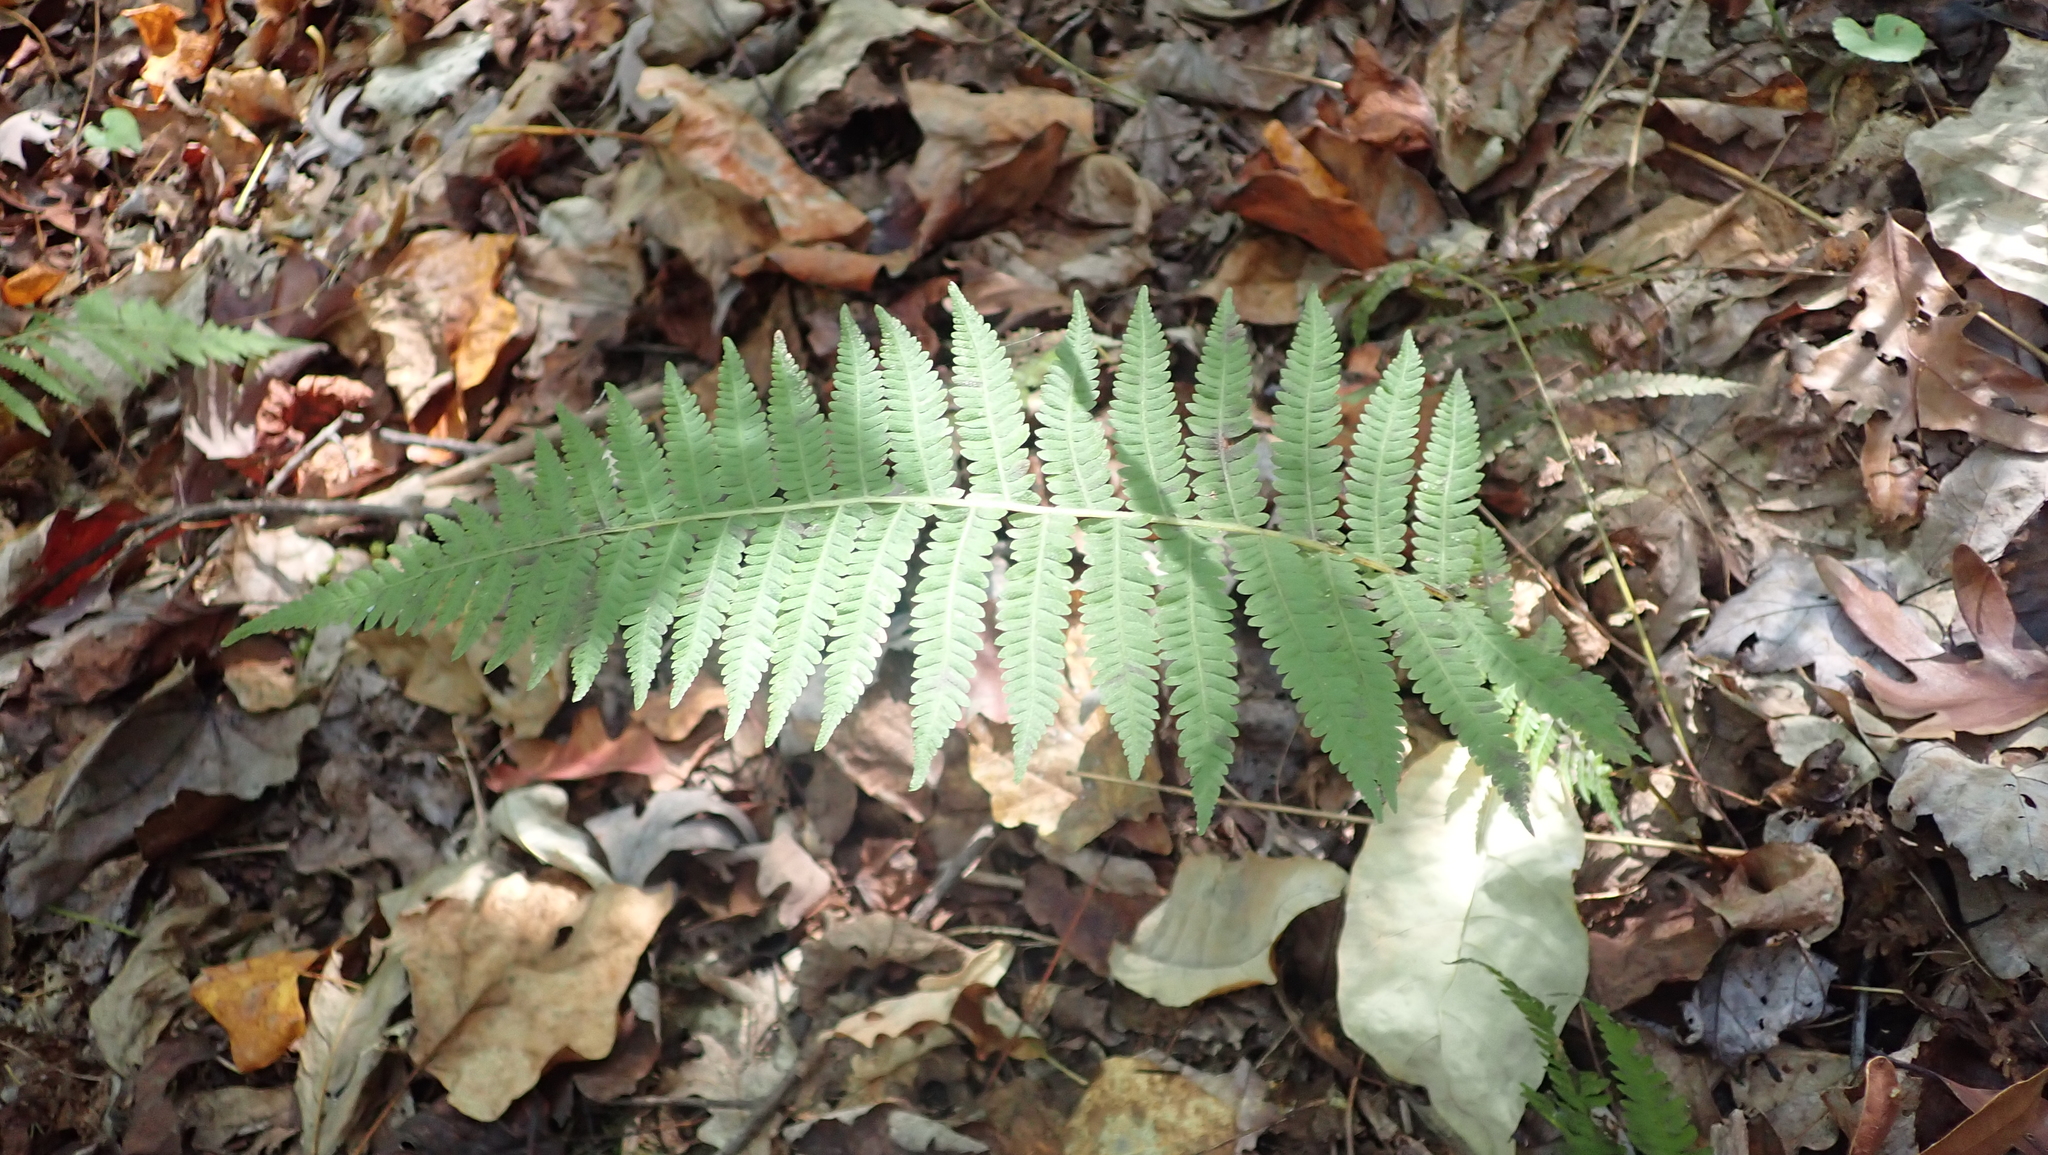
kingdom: Plantae
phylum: Tracheophyta
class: Polypodiopsida
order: Polypodiales
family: Thelypteridaceae
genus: Amauropelta
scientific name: Amauropelta noveboracensis
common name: New york fern
